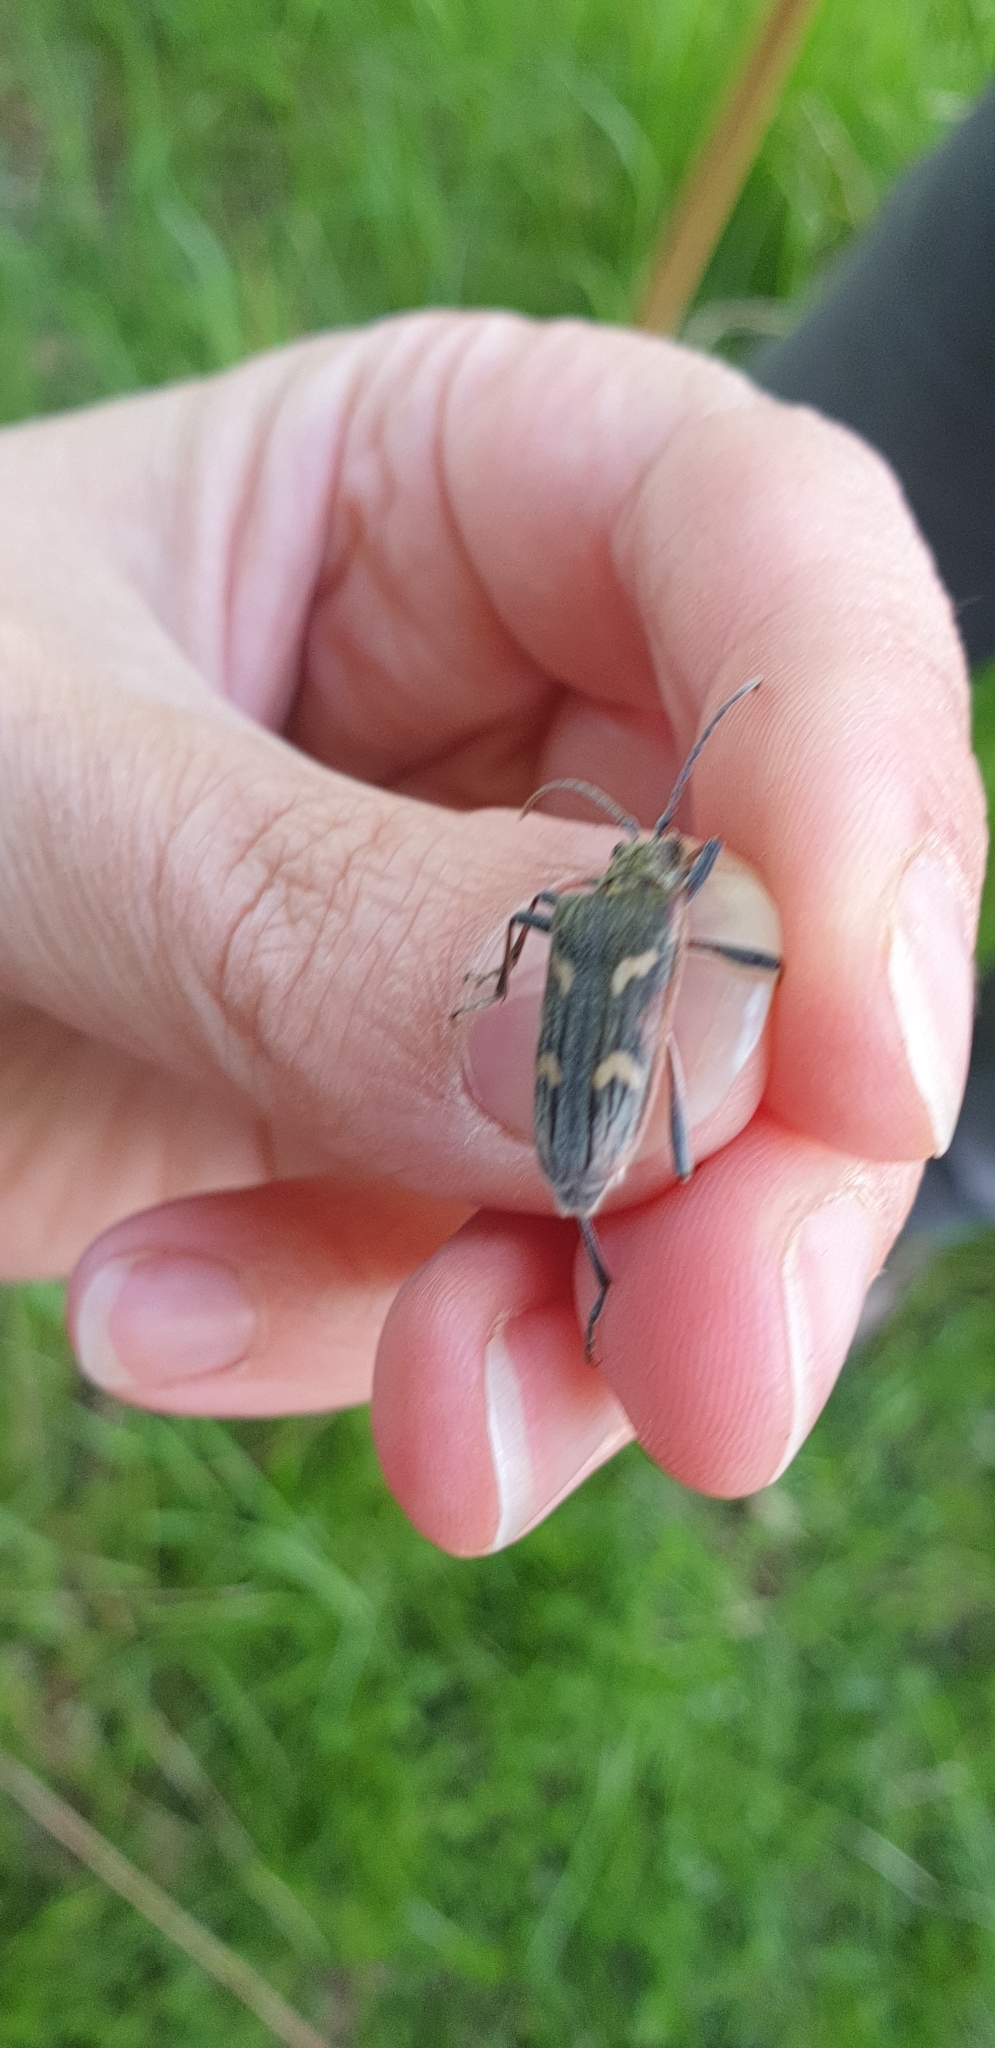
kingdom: Animalia
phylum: Arthropoda
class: Insecta
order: Coleoptera
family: Cerambycidae
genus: Rhagium
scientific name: Rhagium bifasciatum
